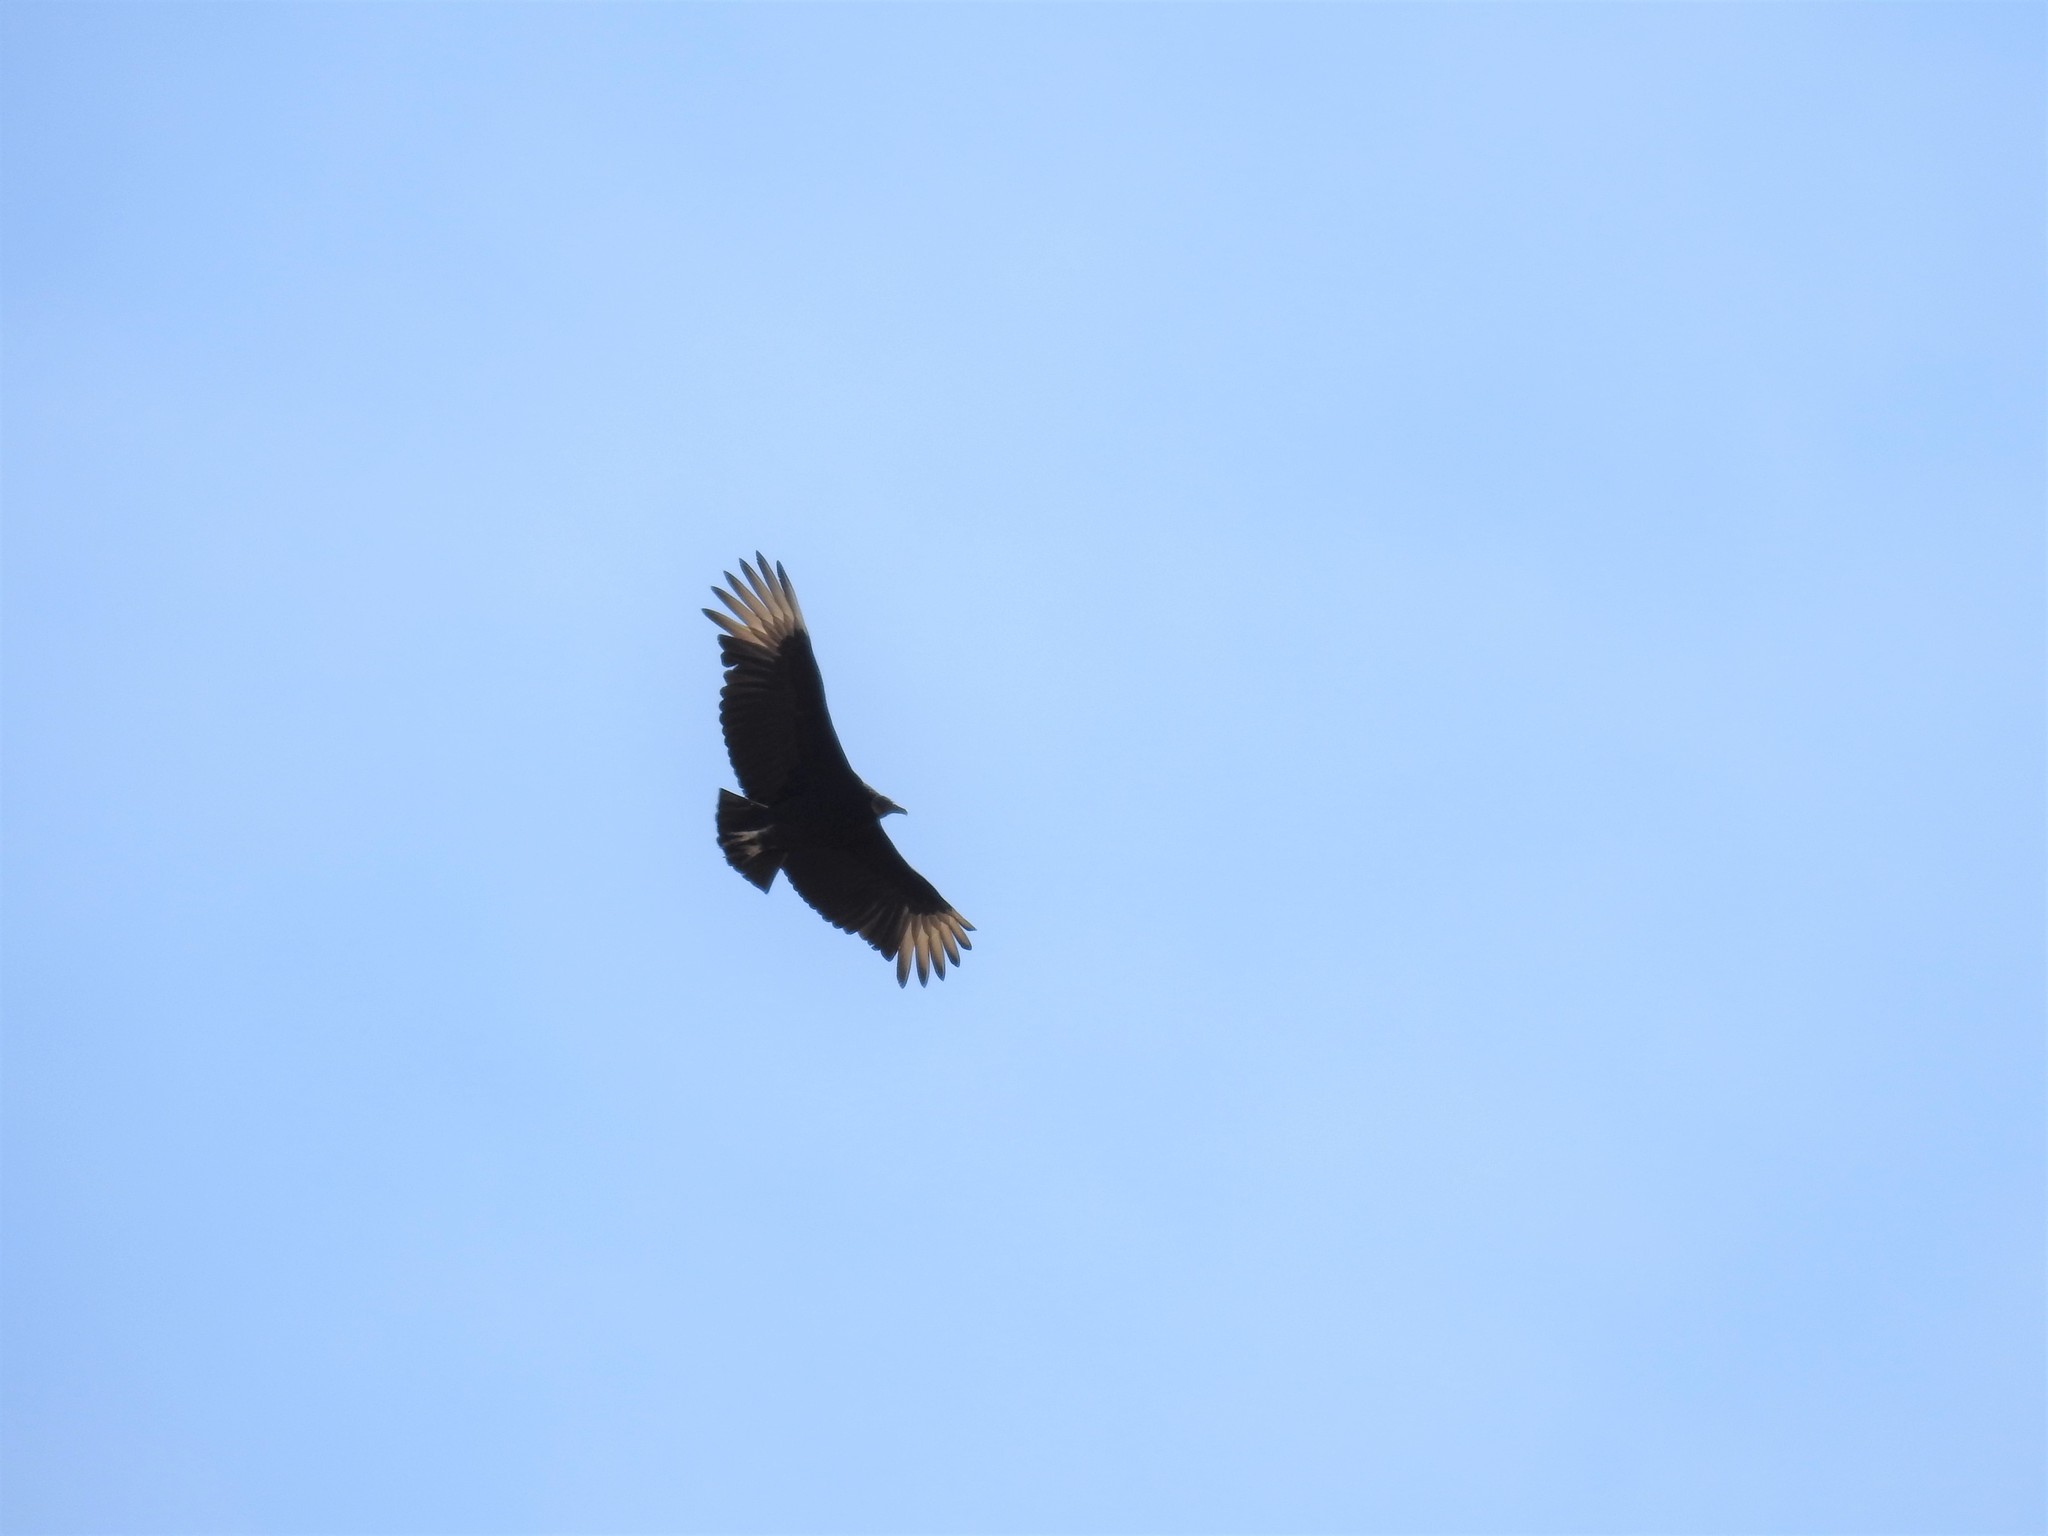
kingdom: Animalia
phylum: Chordata
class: Aves
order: Accipitriformes
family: Cathartidae
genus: Coragyps
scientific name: Coragyps atratus
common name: Black vulture
